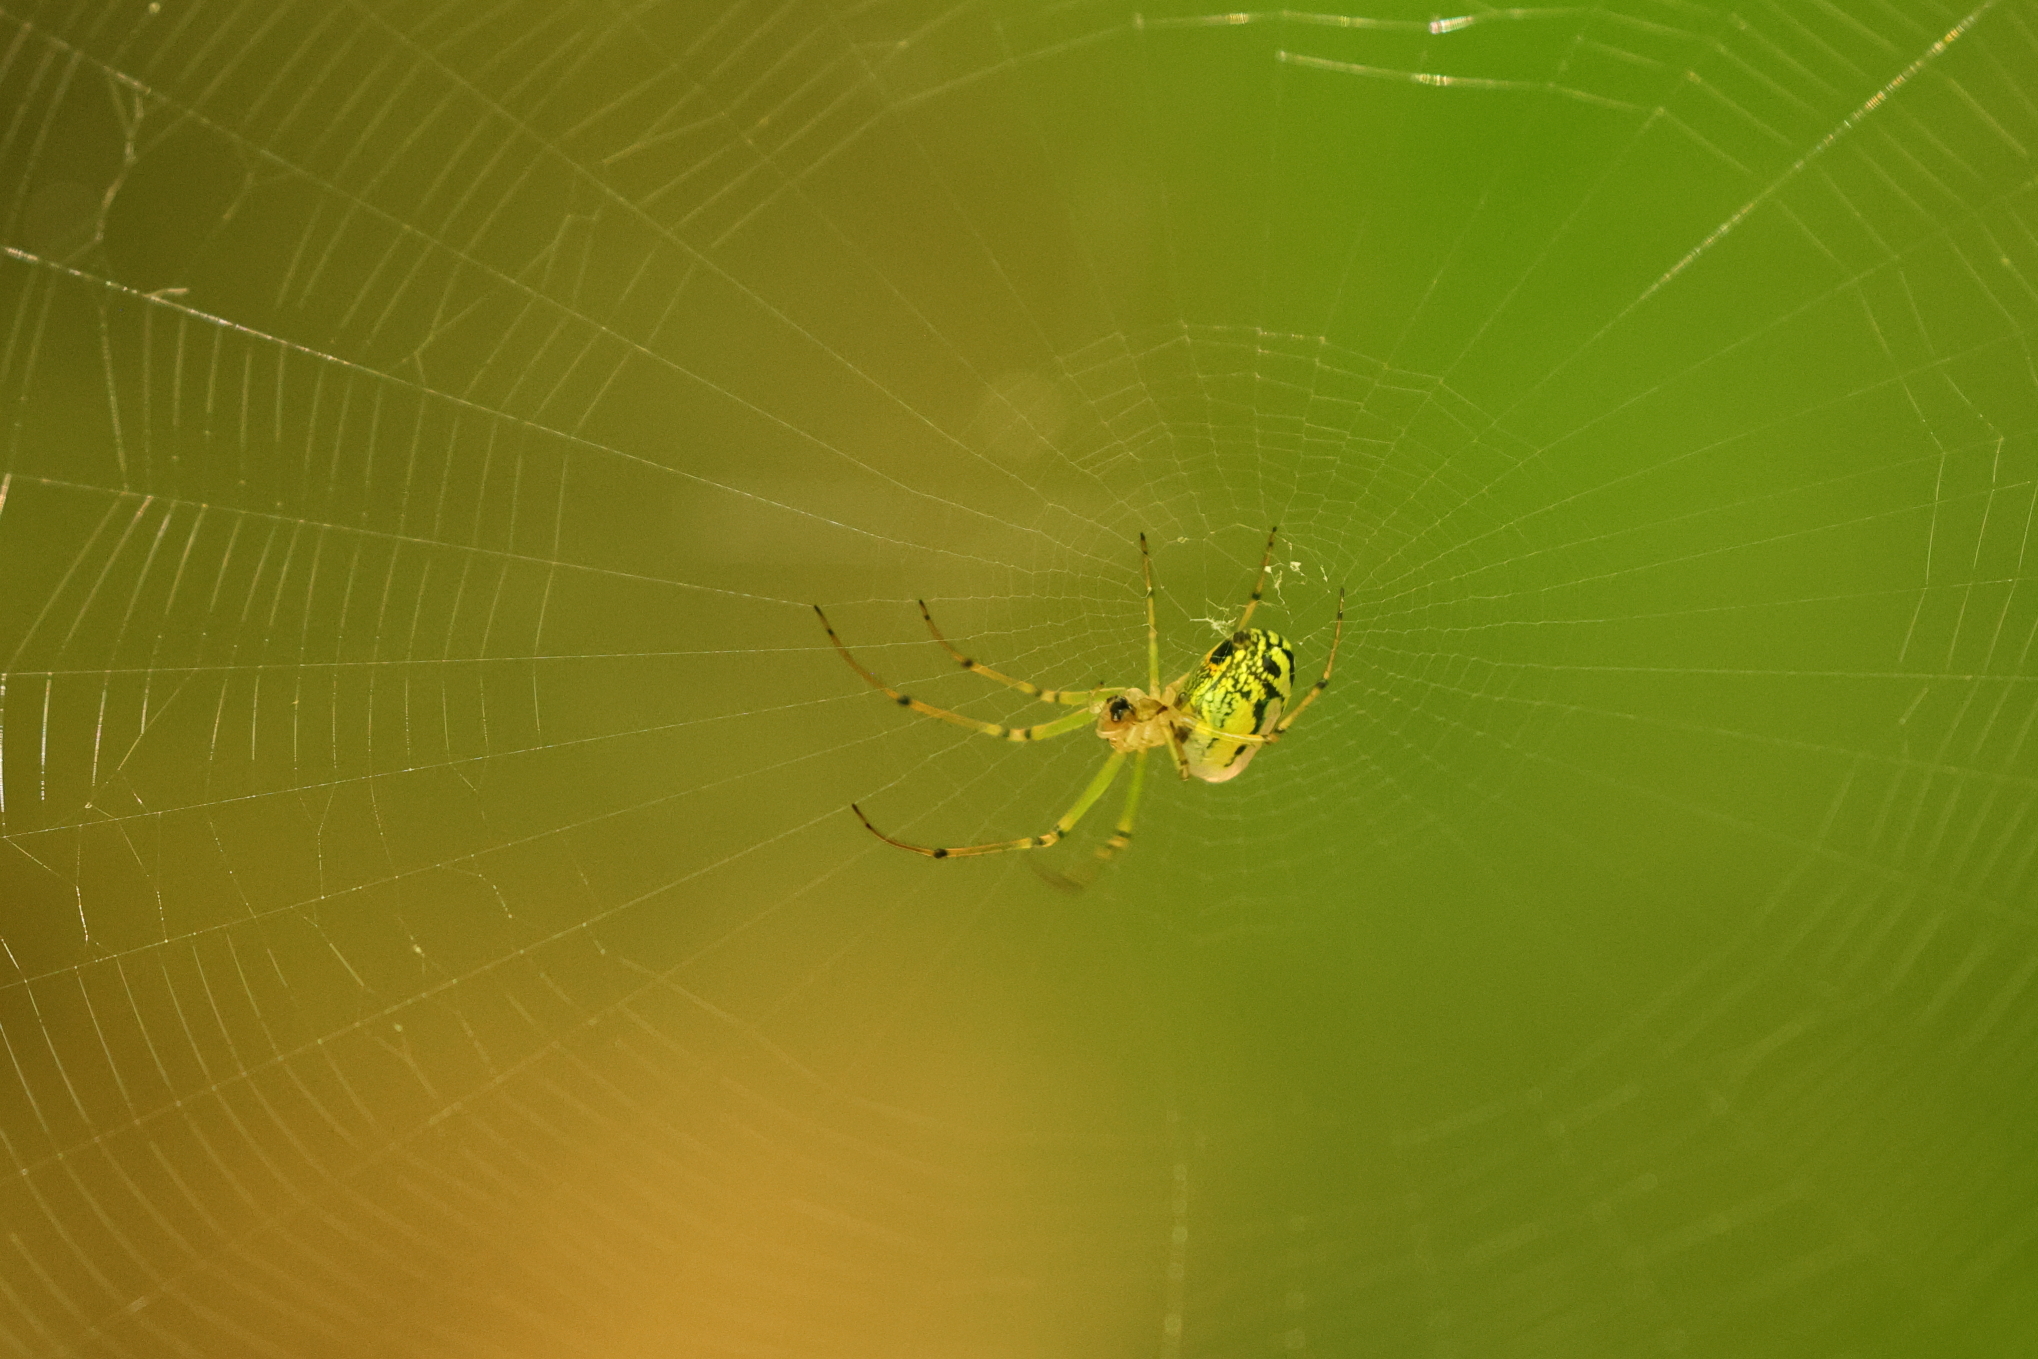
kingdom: Animalia
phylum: Arthropoda
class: Arachnida
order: Araneae
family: Tetragnathidae
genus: Leucauge
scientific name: Leucauge venusta
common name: Longjawed orb weavers
